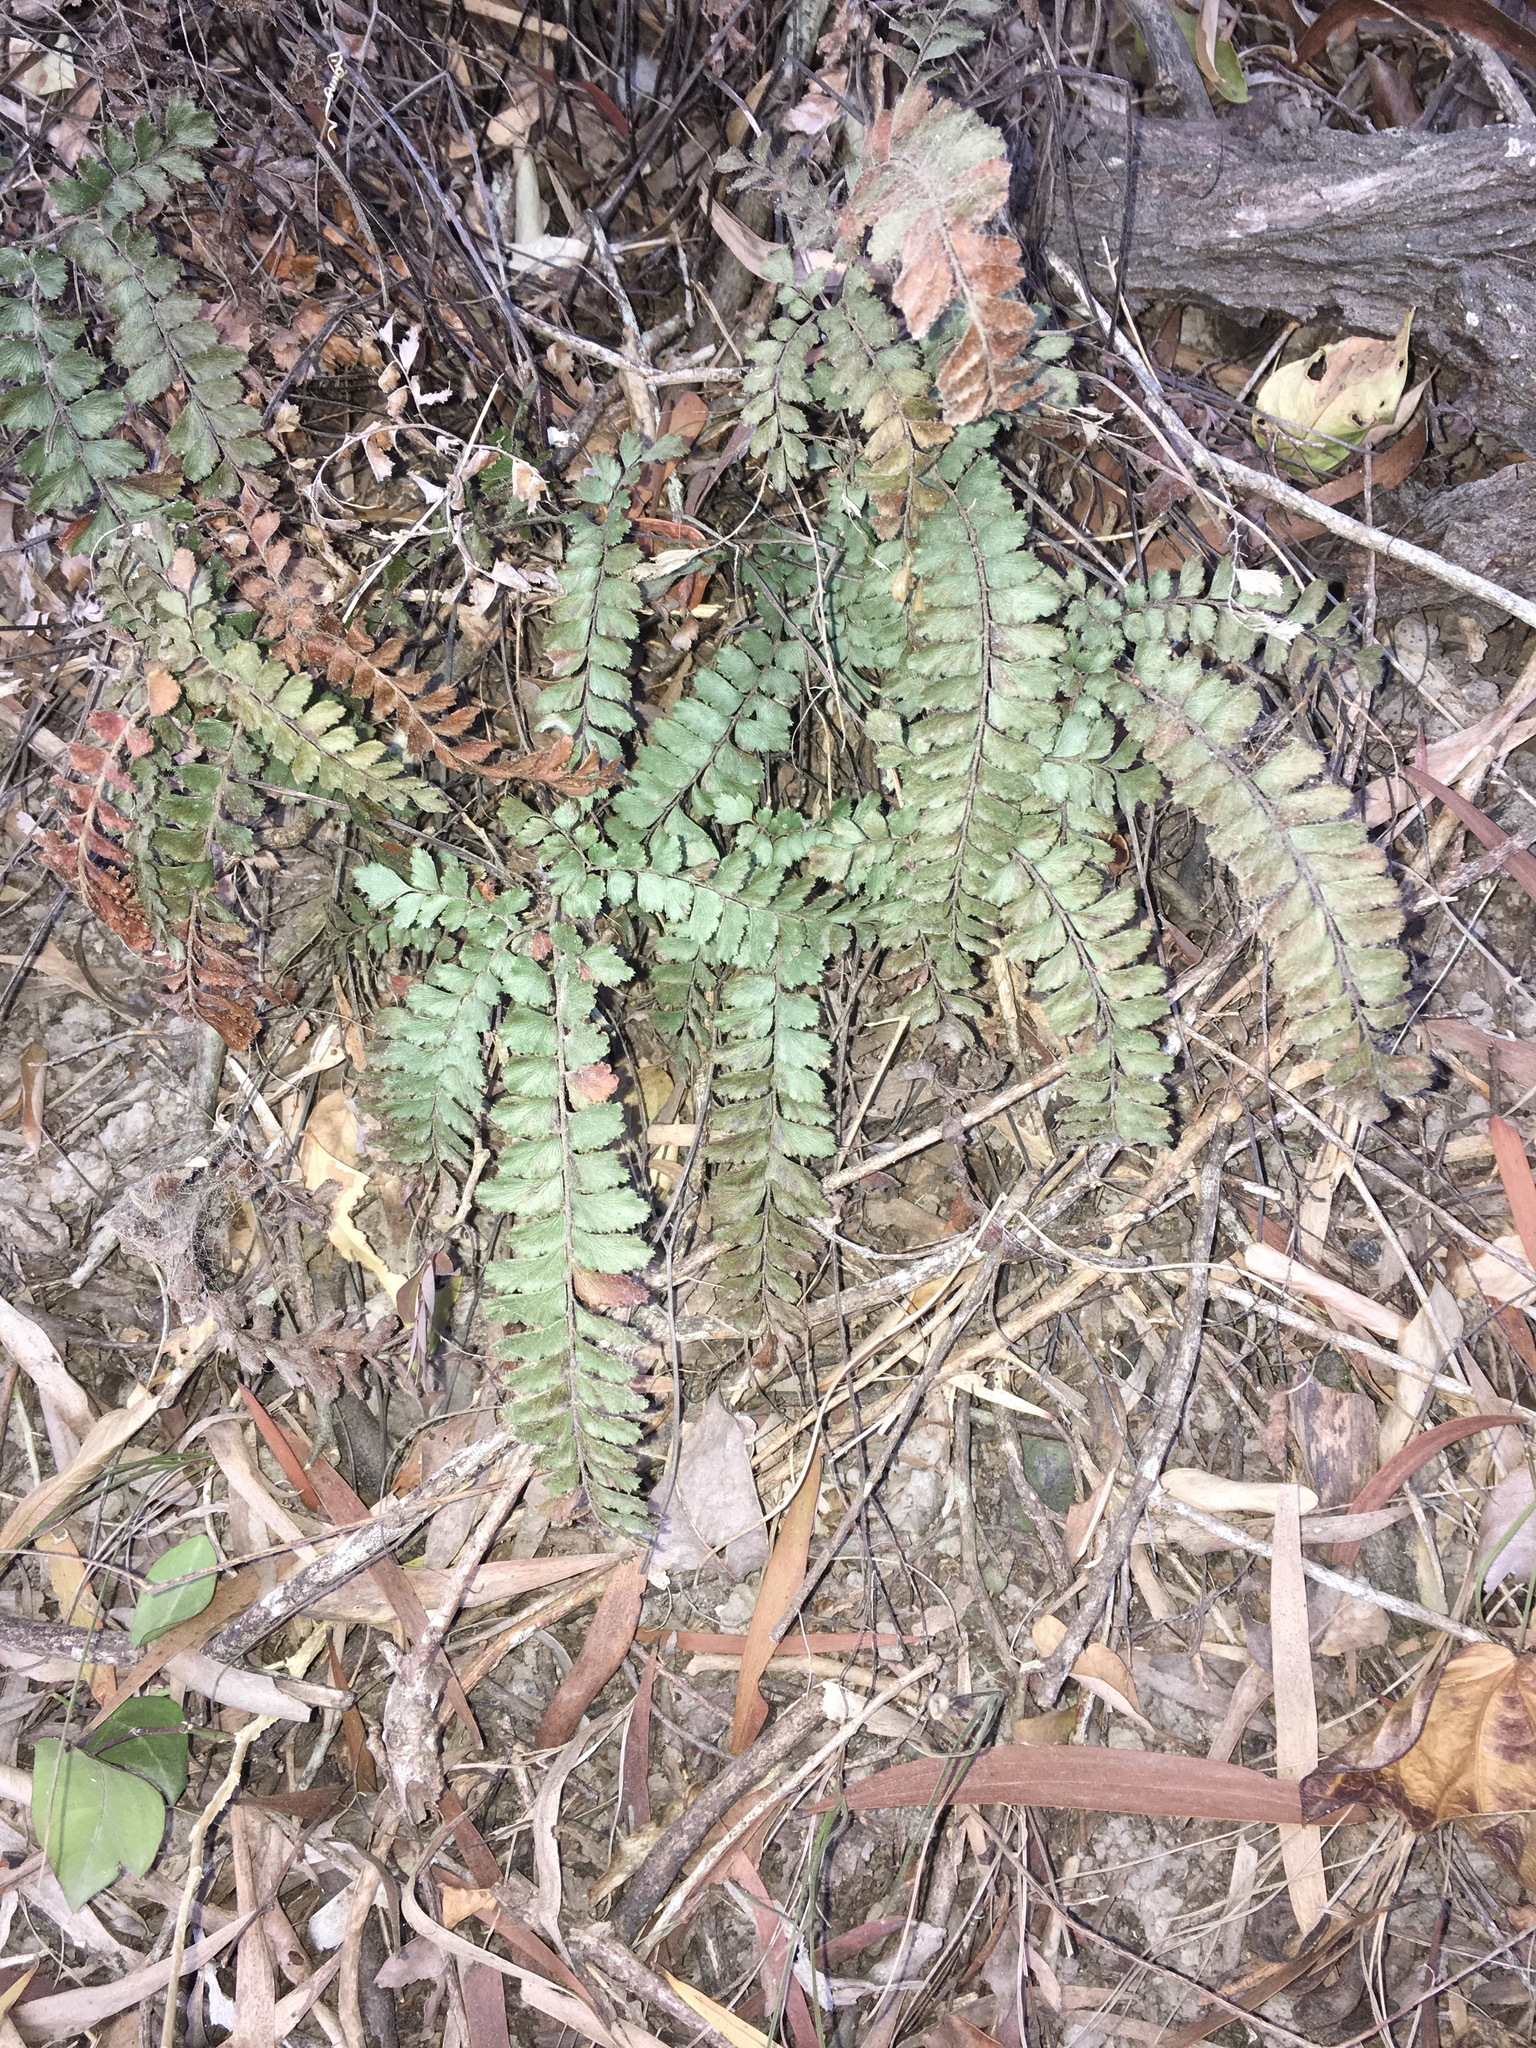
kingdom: Plantae
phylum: Tracheophyta
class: Polypodiopsida
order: Polypodiales
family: Pteridaceae
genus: Adiantum
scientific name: Adiantum hispidulum
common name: Rough maidenhair
